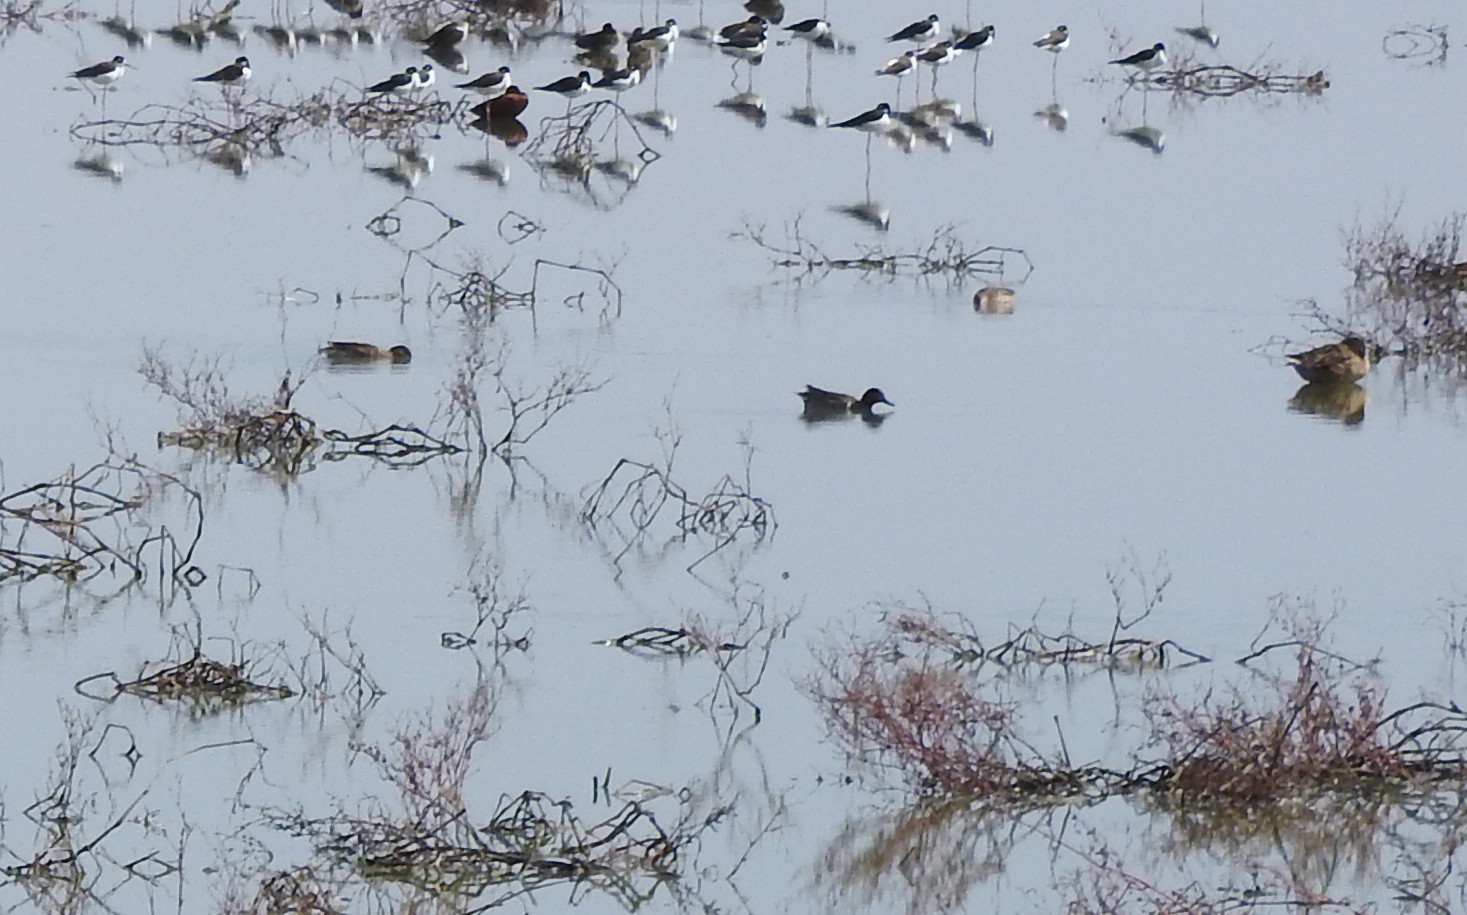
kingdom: Animalia
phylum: Chordata
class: Aves
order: Anseriformes
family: Anatidae
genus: Anas
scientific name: Anas crecca
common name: Eurasian teal
